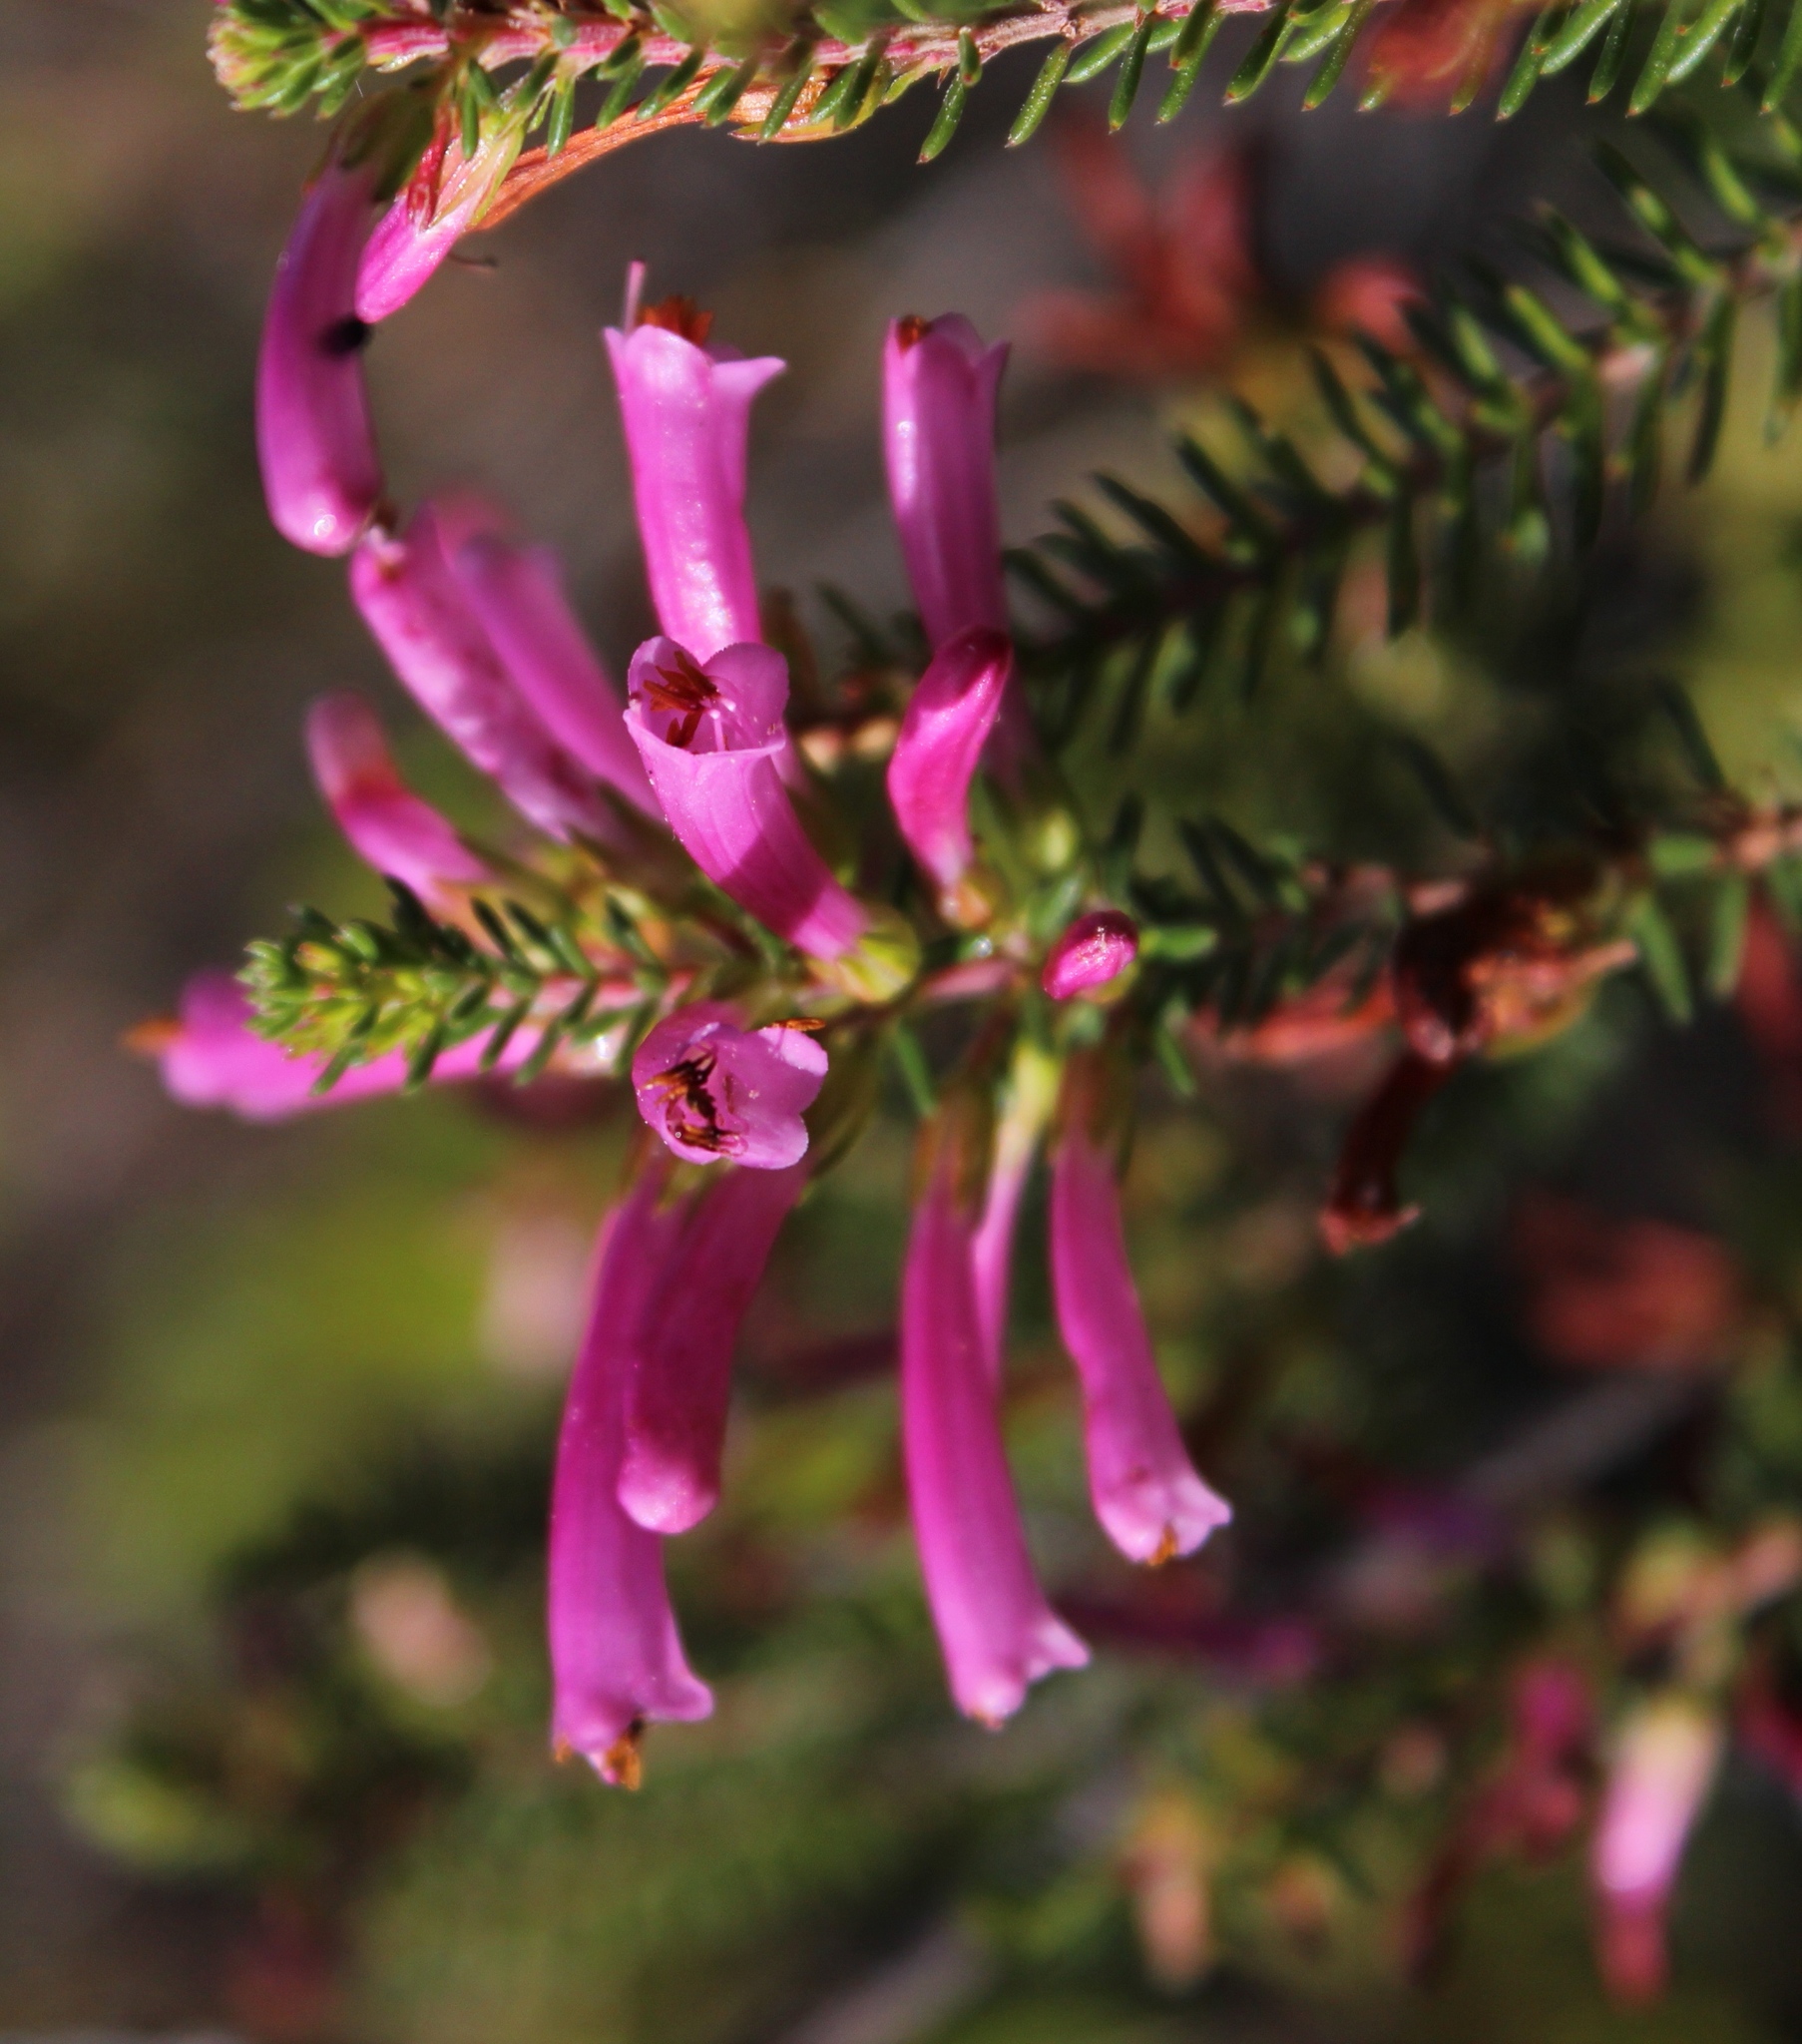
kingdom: Plantae
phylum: Tracheophyta
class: Magnoliopsida
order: Ericales
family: Ericaceae
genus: Erica
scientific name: Erica abietina
